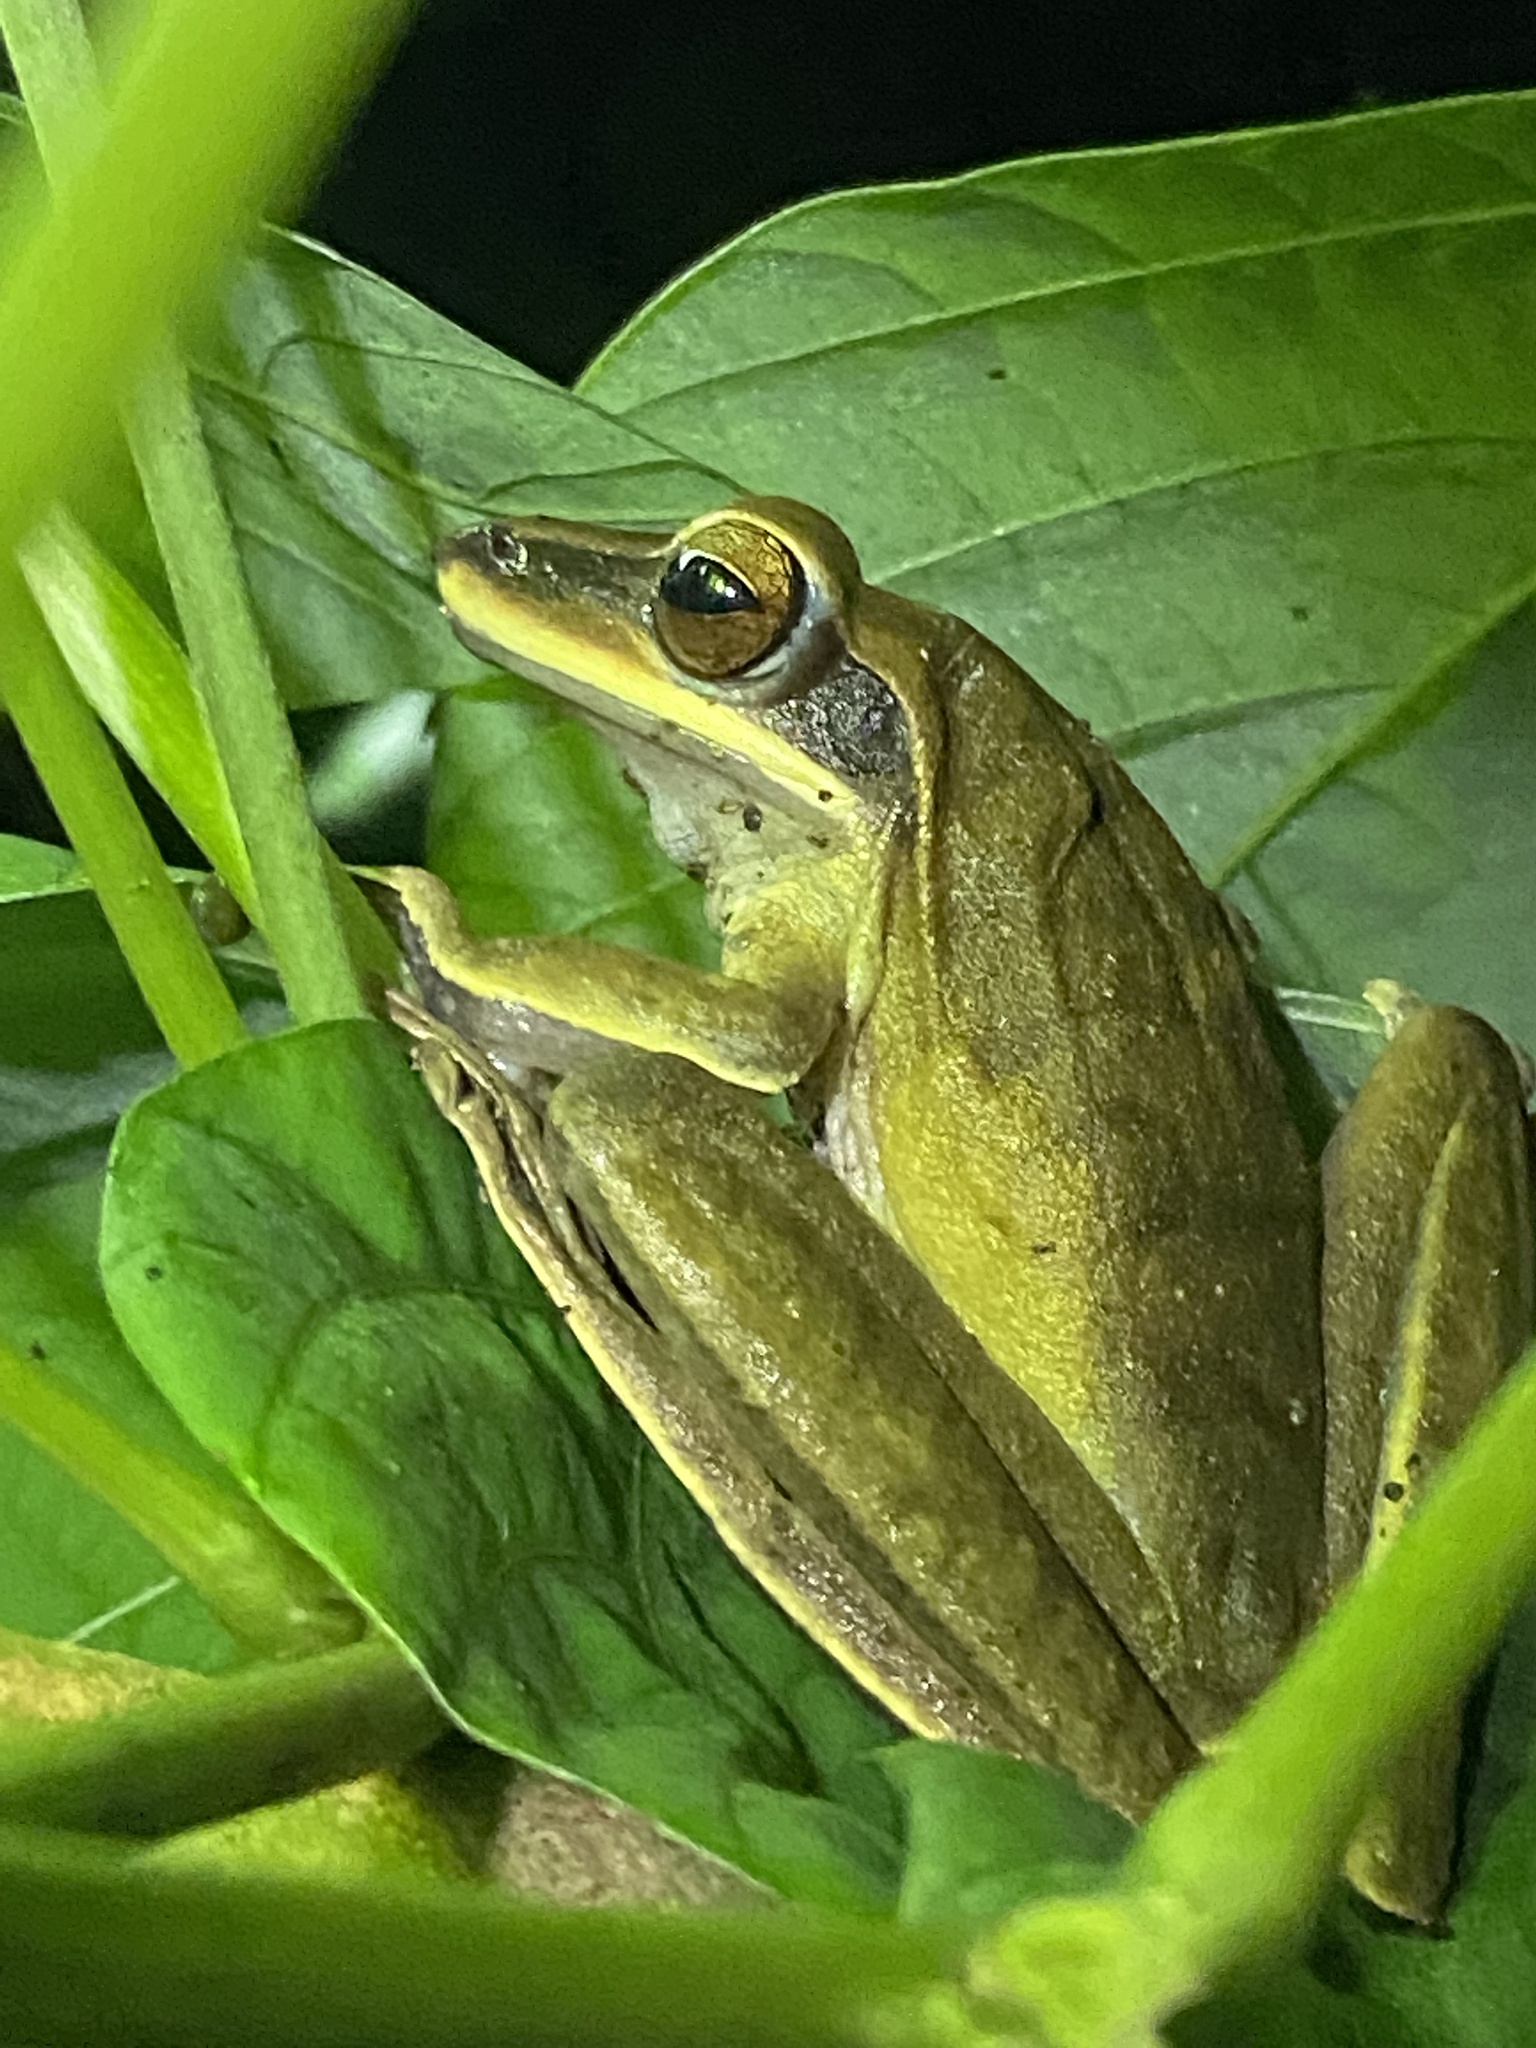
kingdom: Animalia
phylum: Chordata
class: Amphibia
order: Anura
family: Hylidae
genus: Boana
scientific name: Boana lanciformis
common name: Rana lanceolada commún
